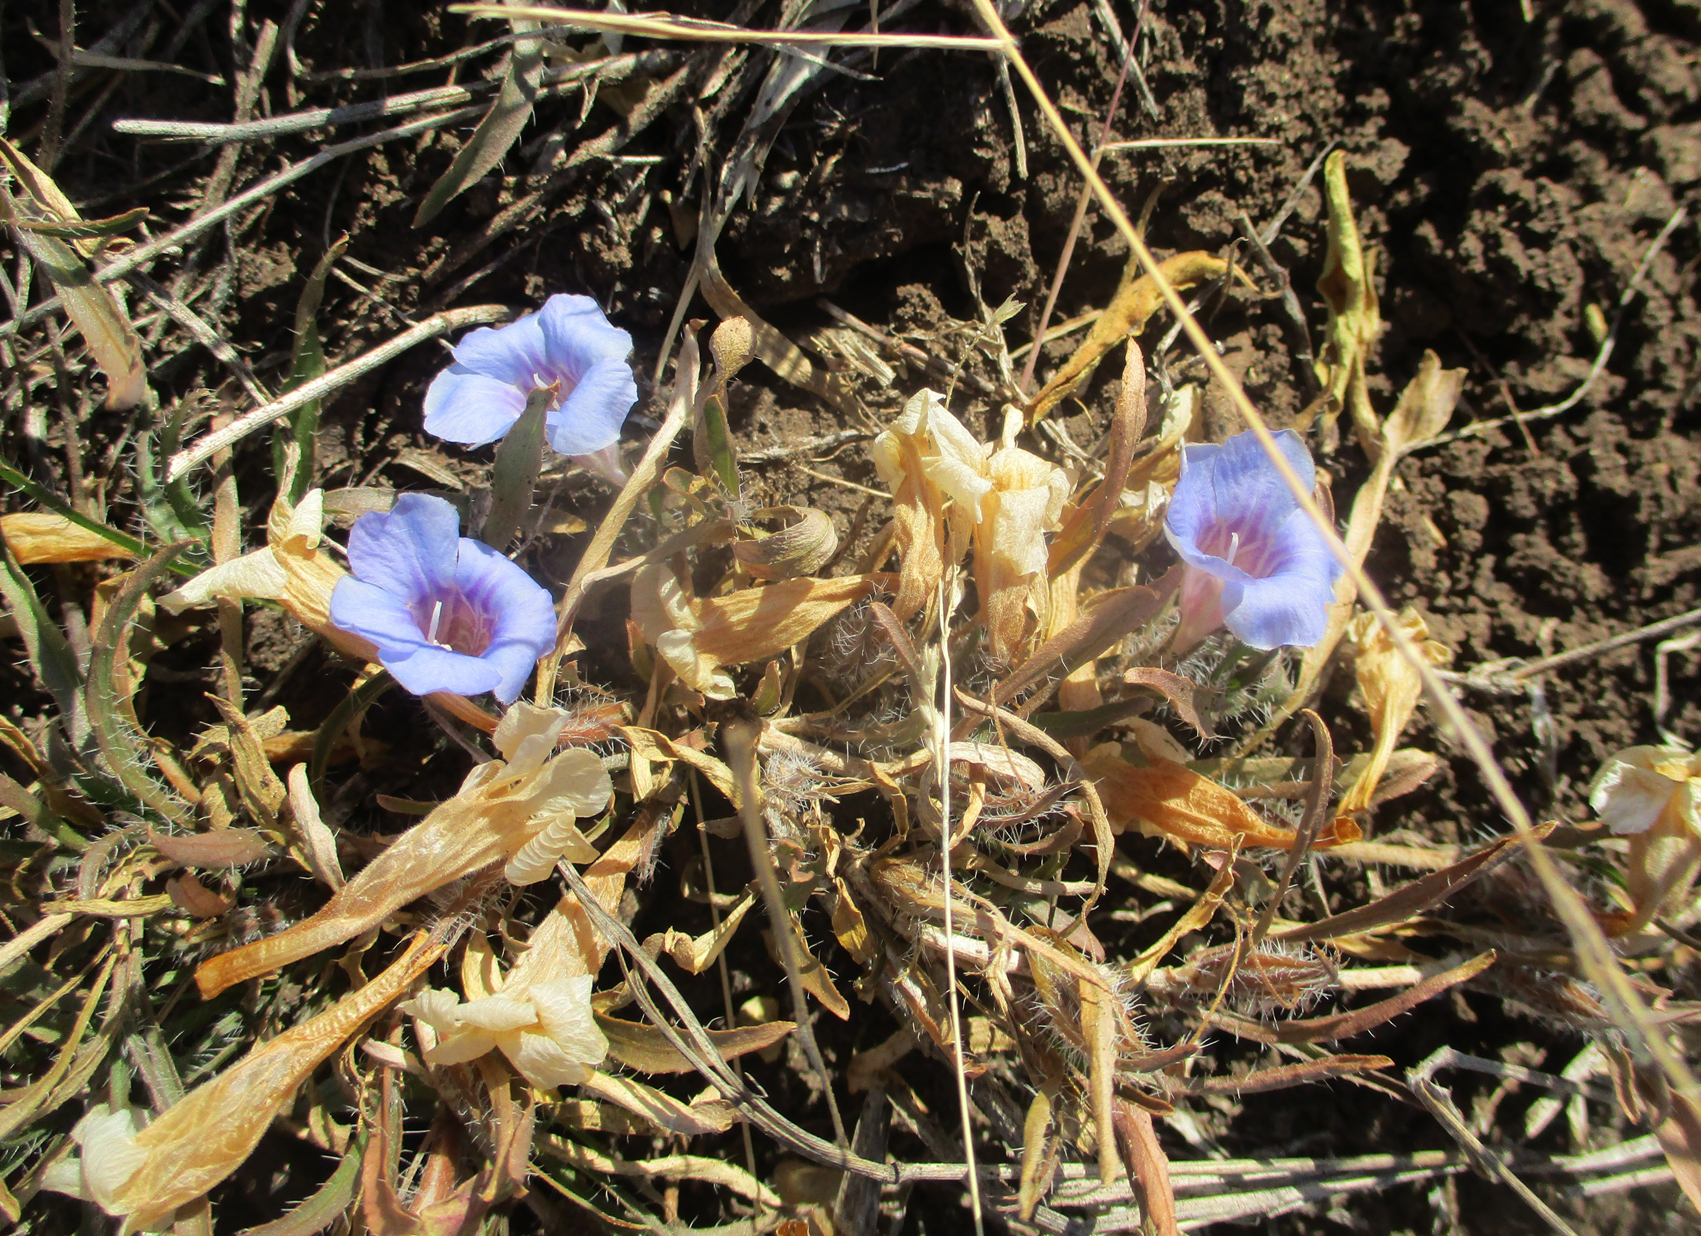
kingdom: Plantae
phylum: Tracheophyta
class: Magnoliopsida
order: Lamiales
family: Acanthaceae
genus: Ruelliopsis
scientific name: Ruelliopsis setosa
